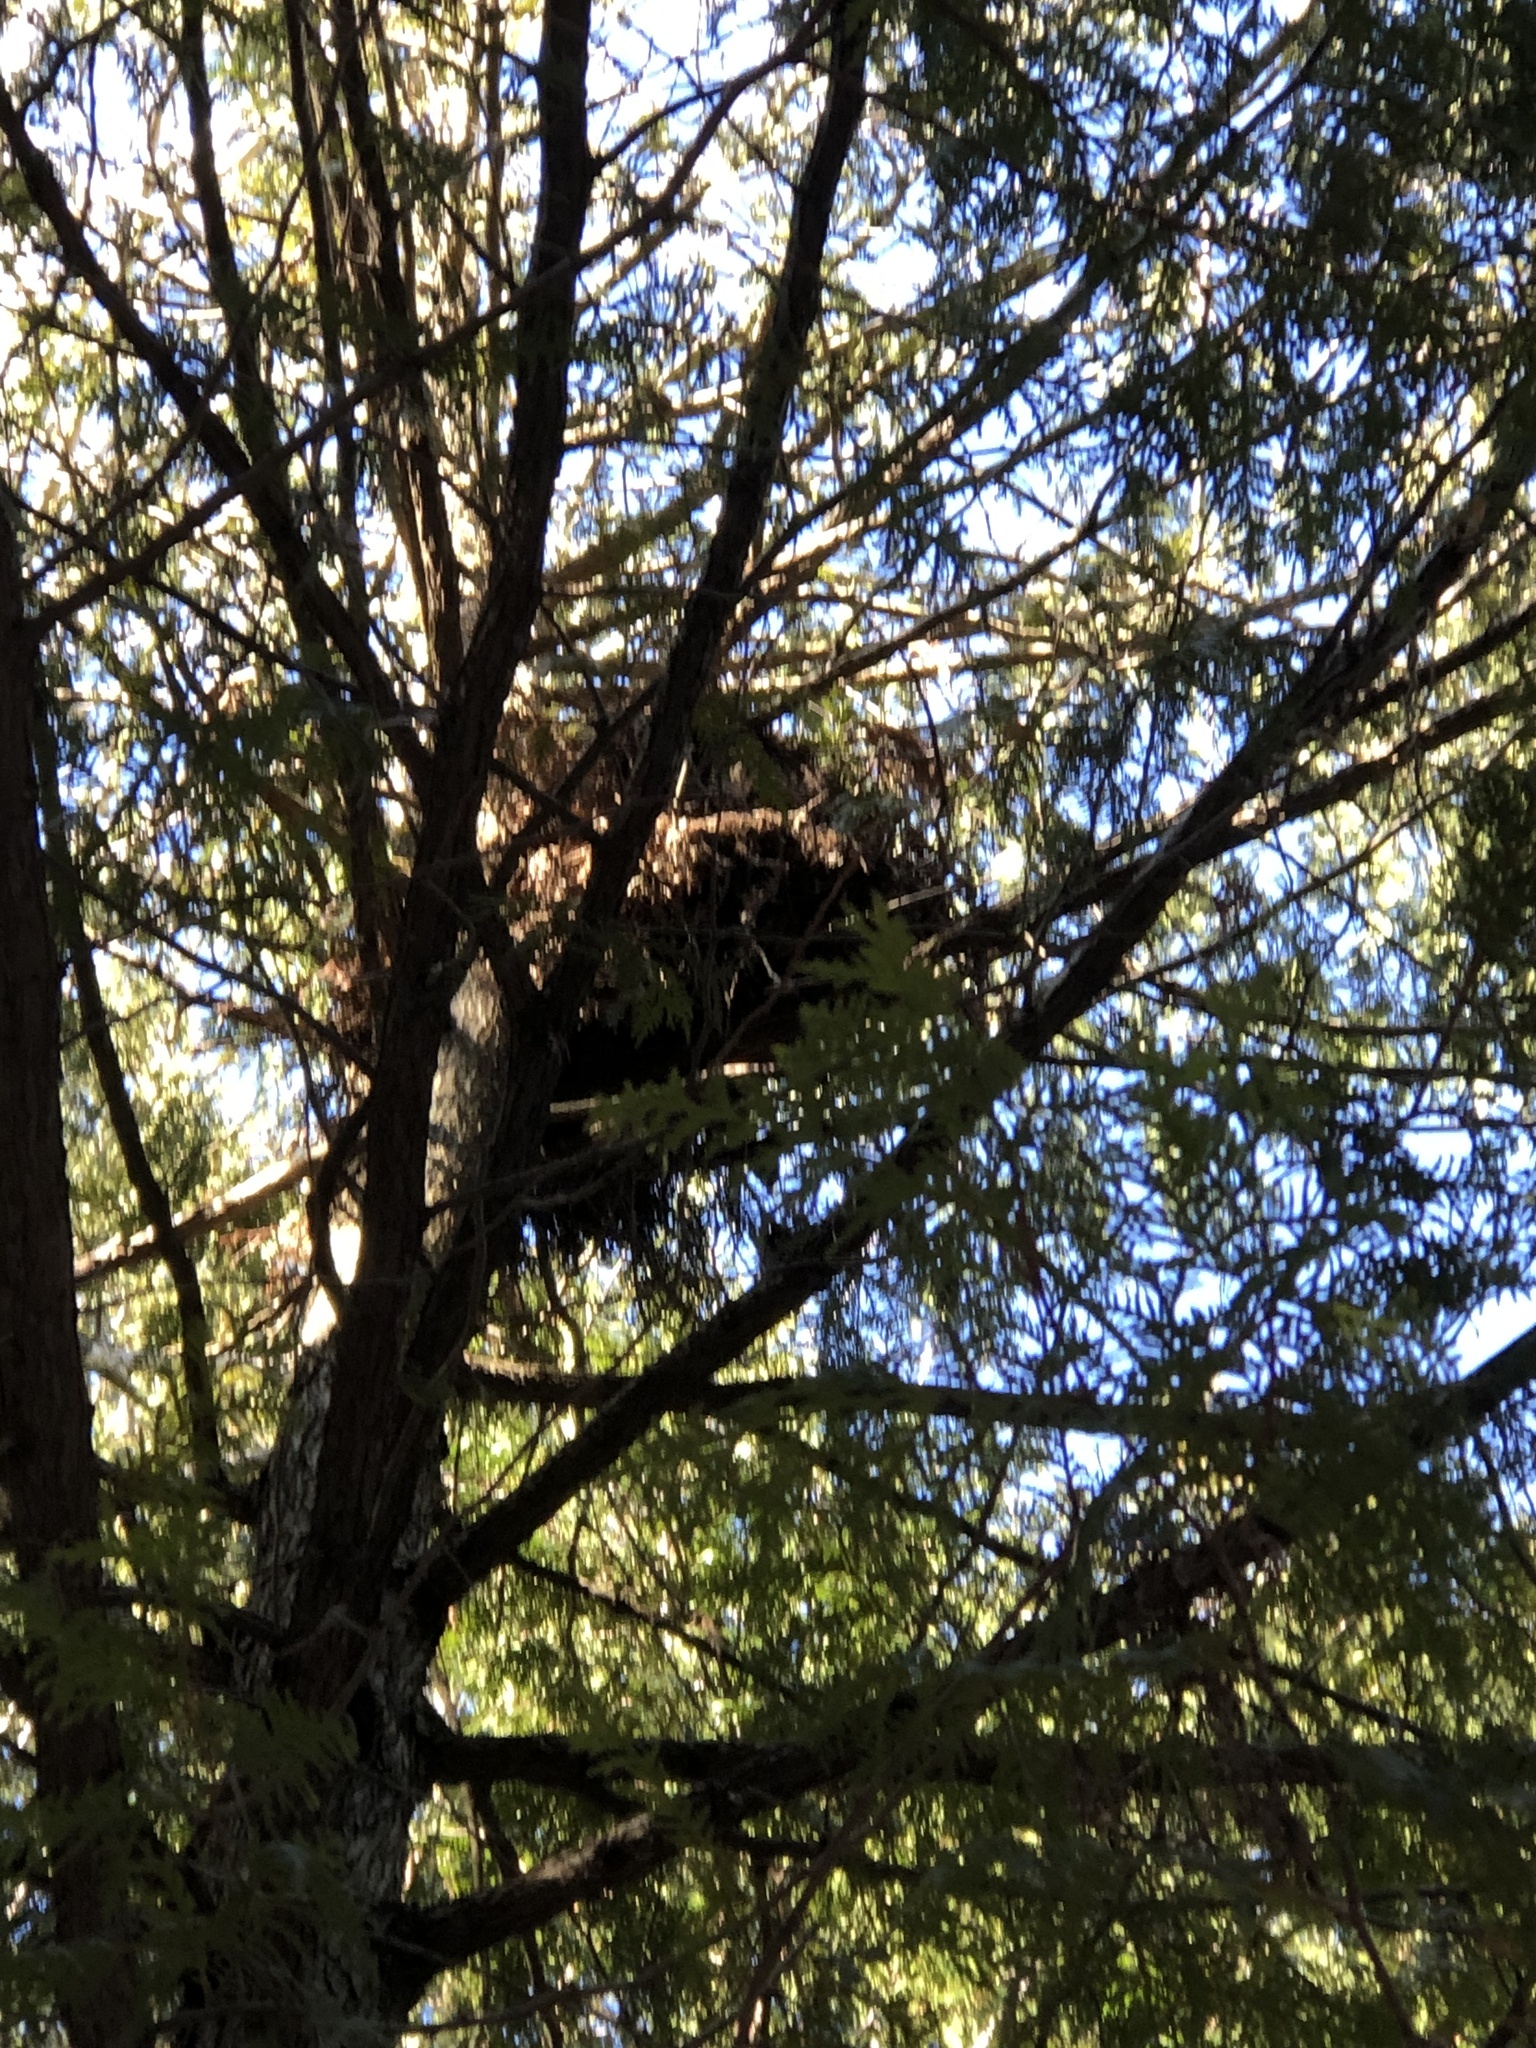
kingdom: Animalia
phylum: Chordata
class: Mammalia
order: Rodentia
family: Sciuridae
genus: Sciurus
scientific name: Sciurus carolinensis
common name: Eastern gray squirrel
